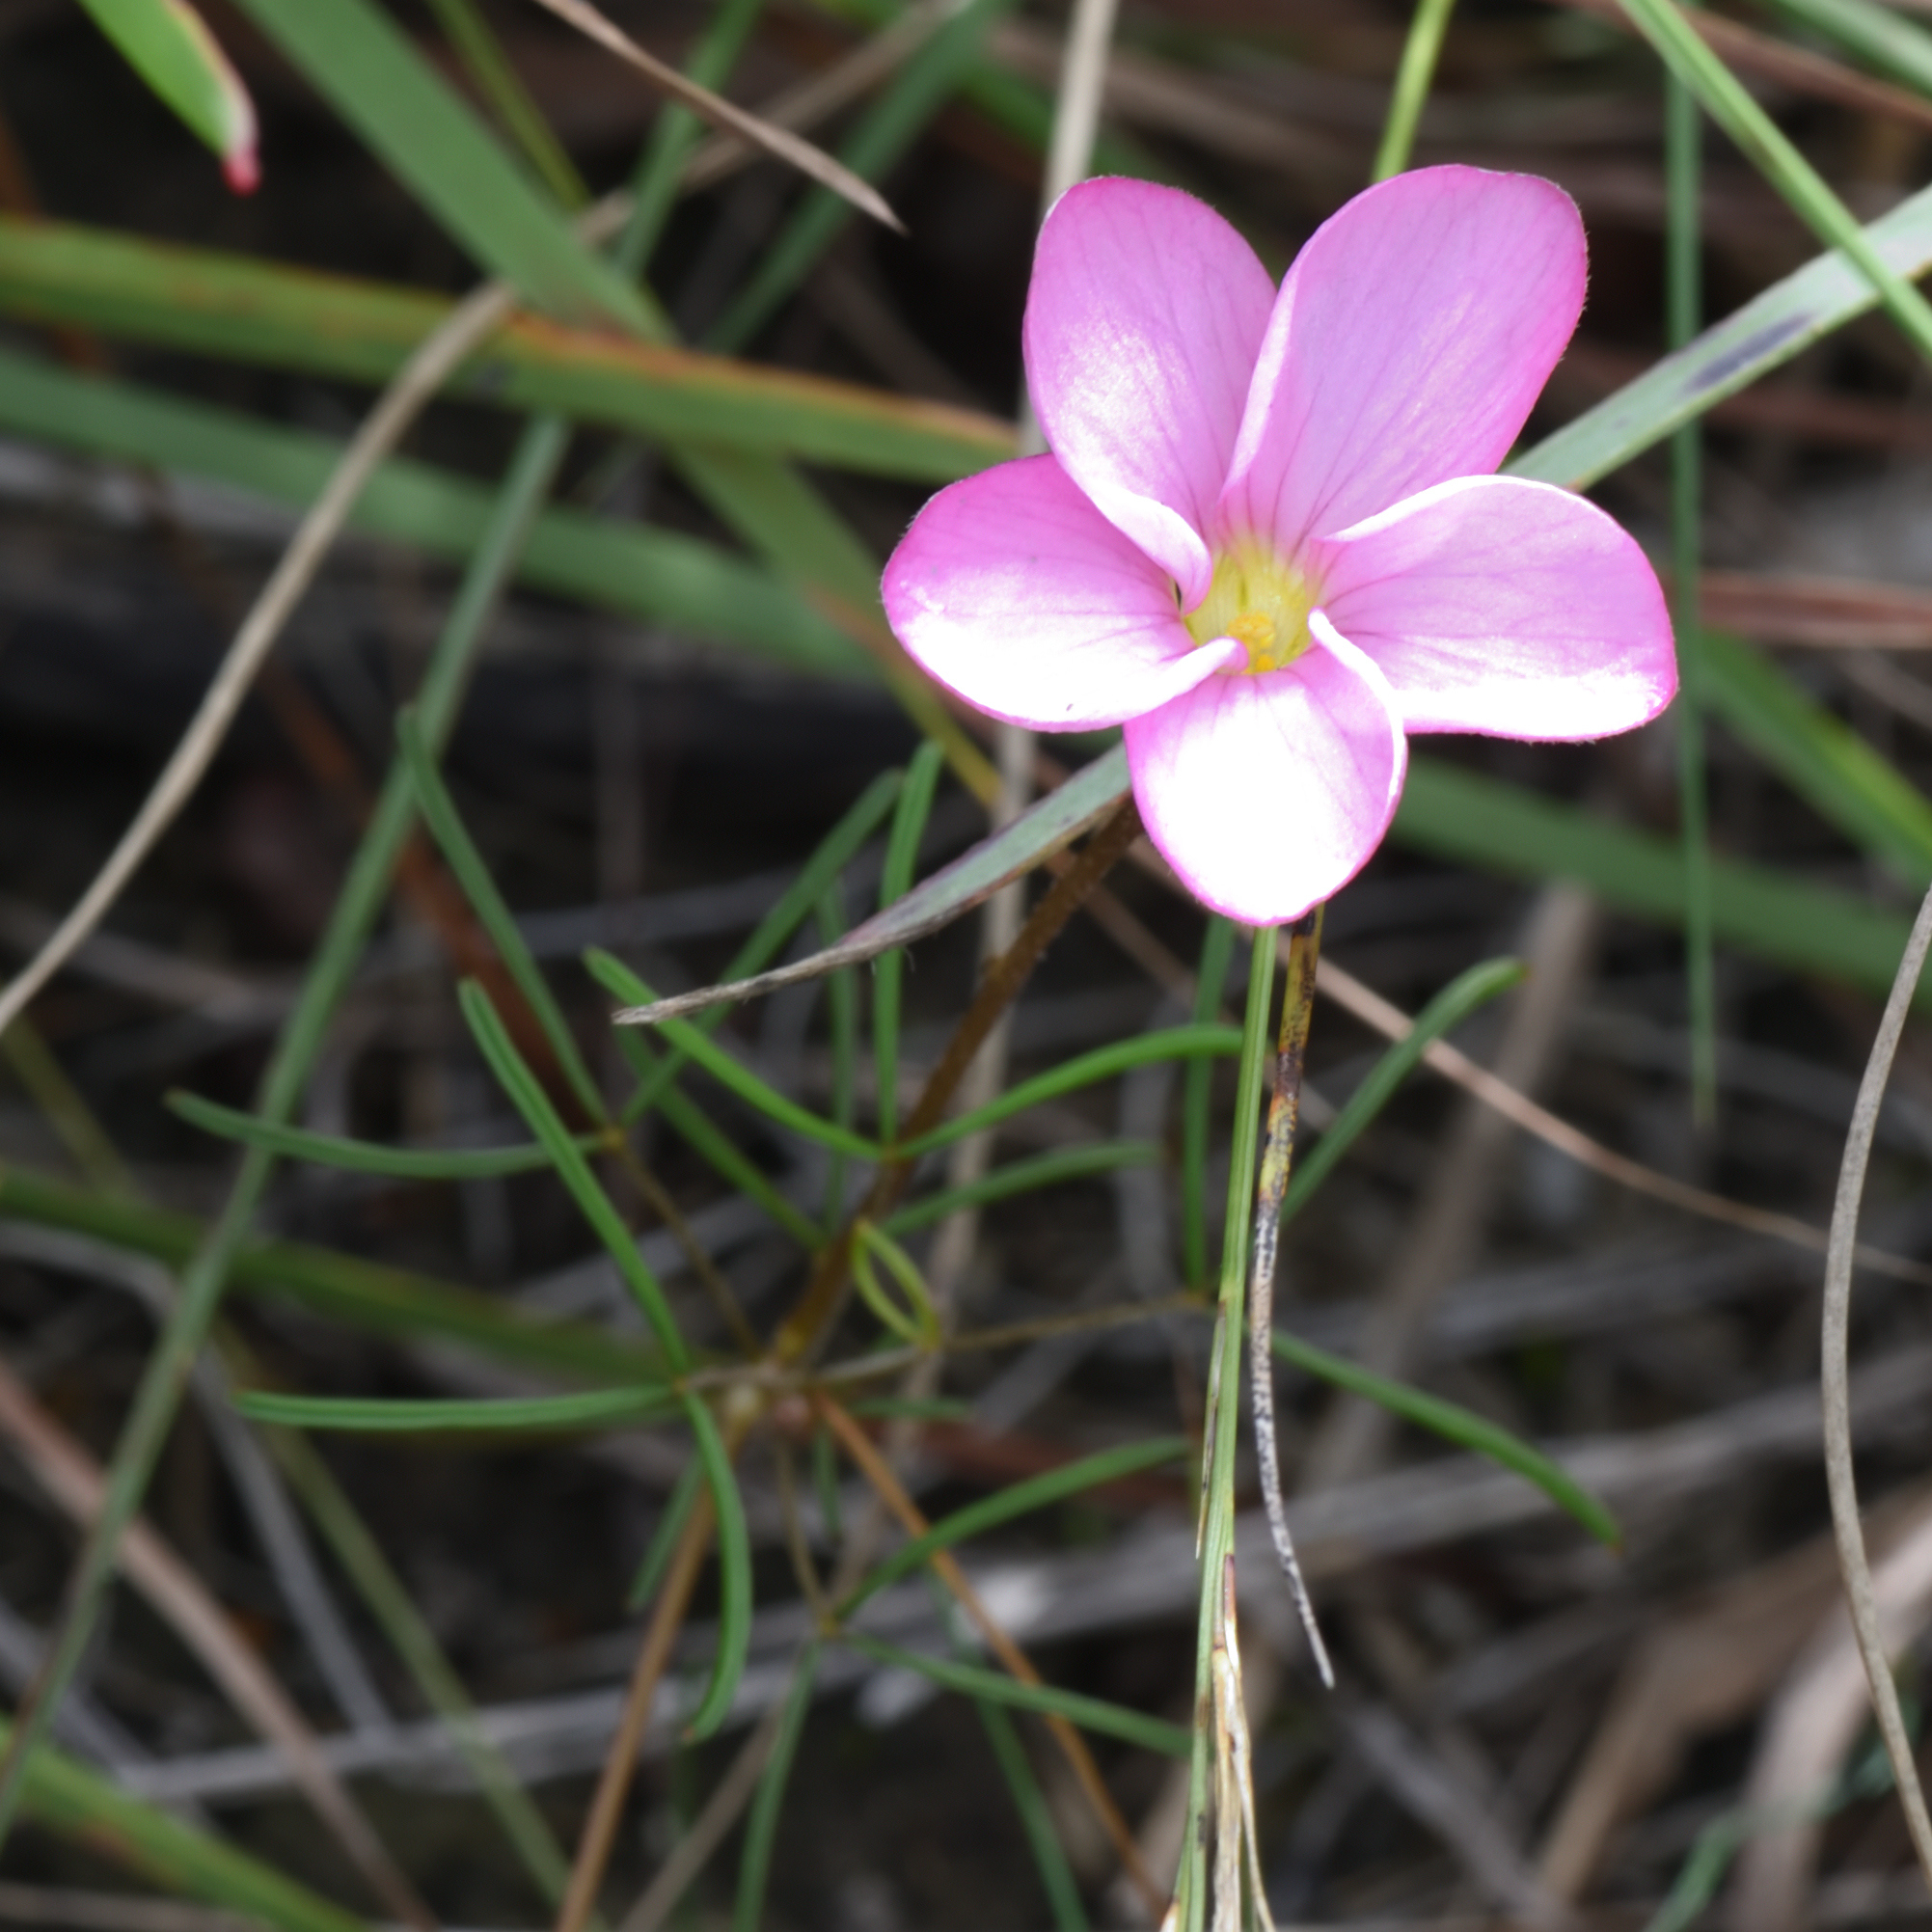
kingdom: Plantae
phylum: Tracheophyta
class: Magnoliopsida
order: Oxalidales
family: Oxalidaceae
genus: Oxalis
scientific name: Oxalis polyphylla
